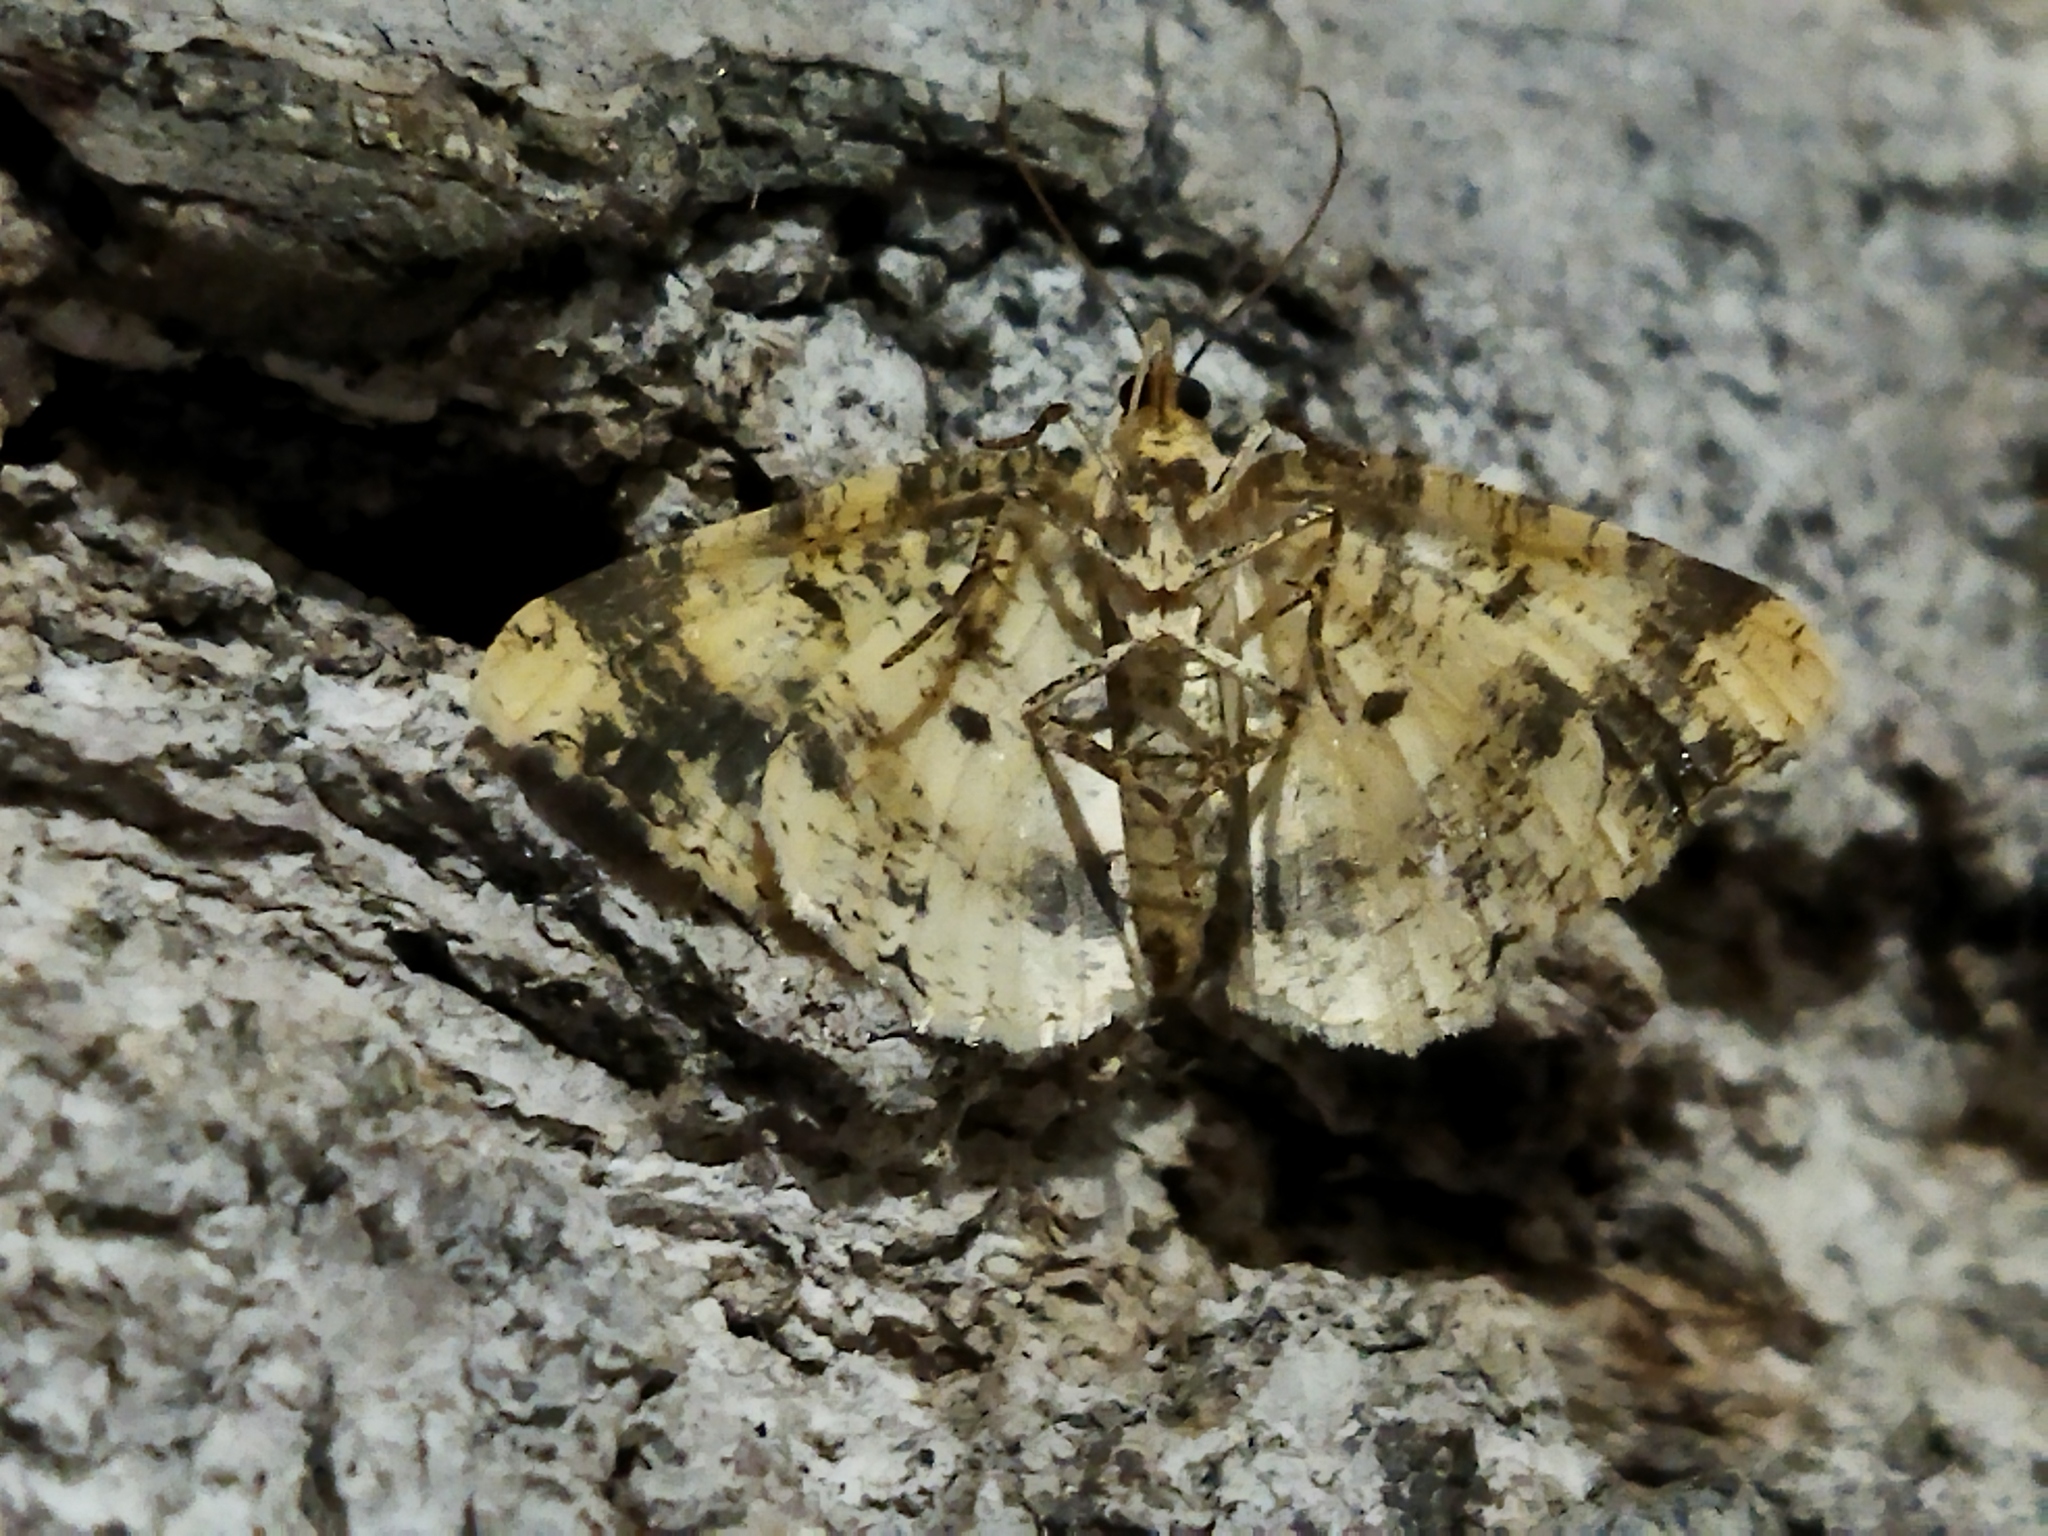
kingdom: Animalia
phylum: Arthropoda
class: Insecta
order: Lepidoptera
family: Geometridae
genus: Ligdia
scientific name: Ligdia adustata
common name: Scorched carpet
